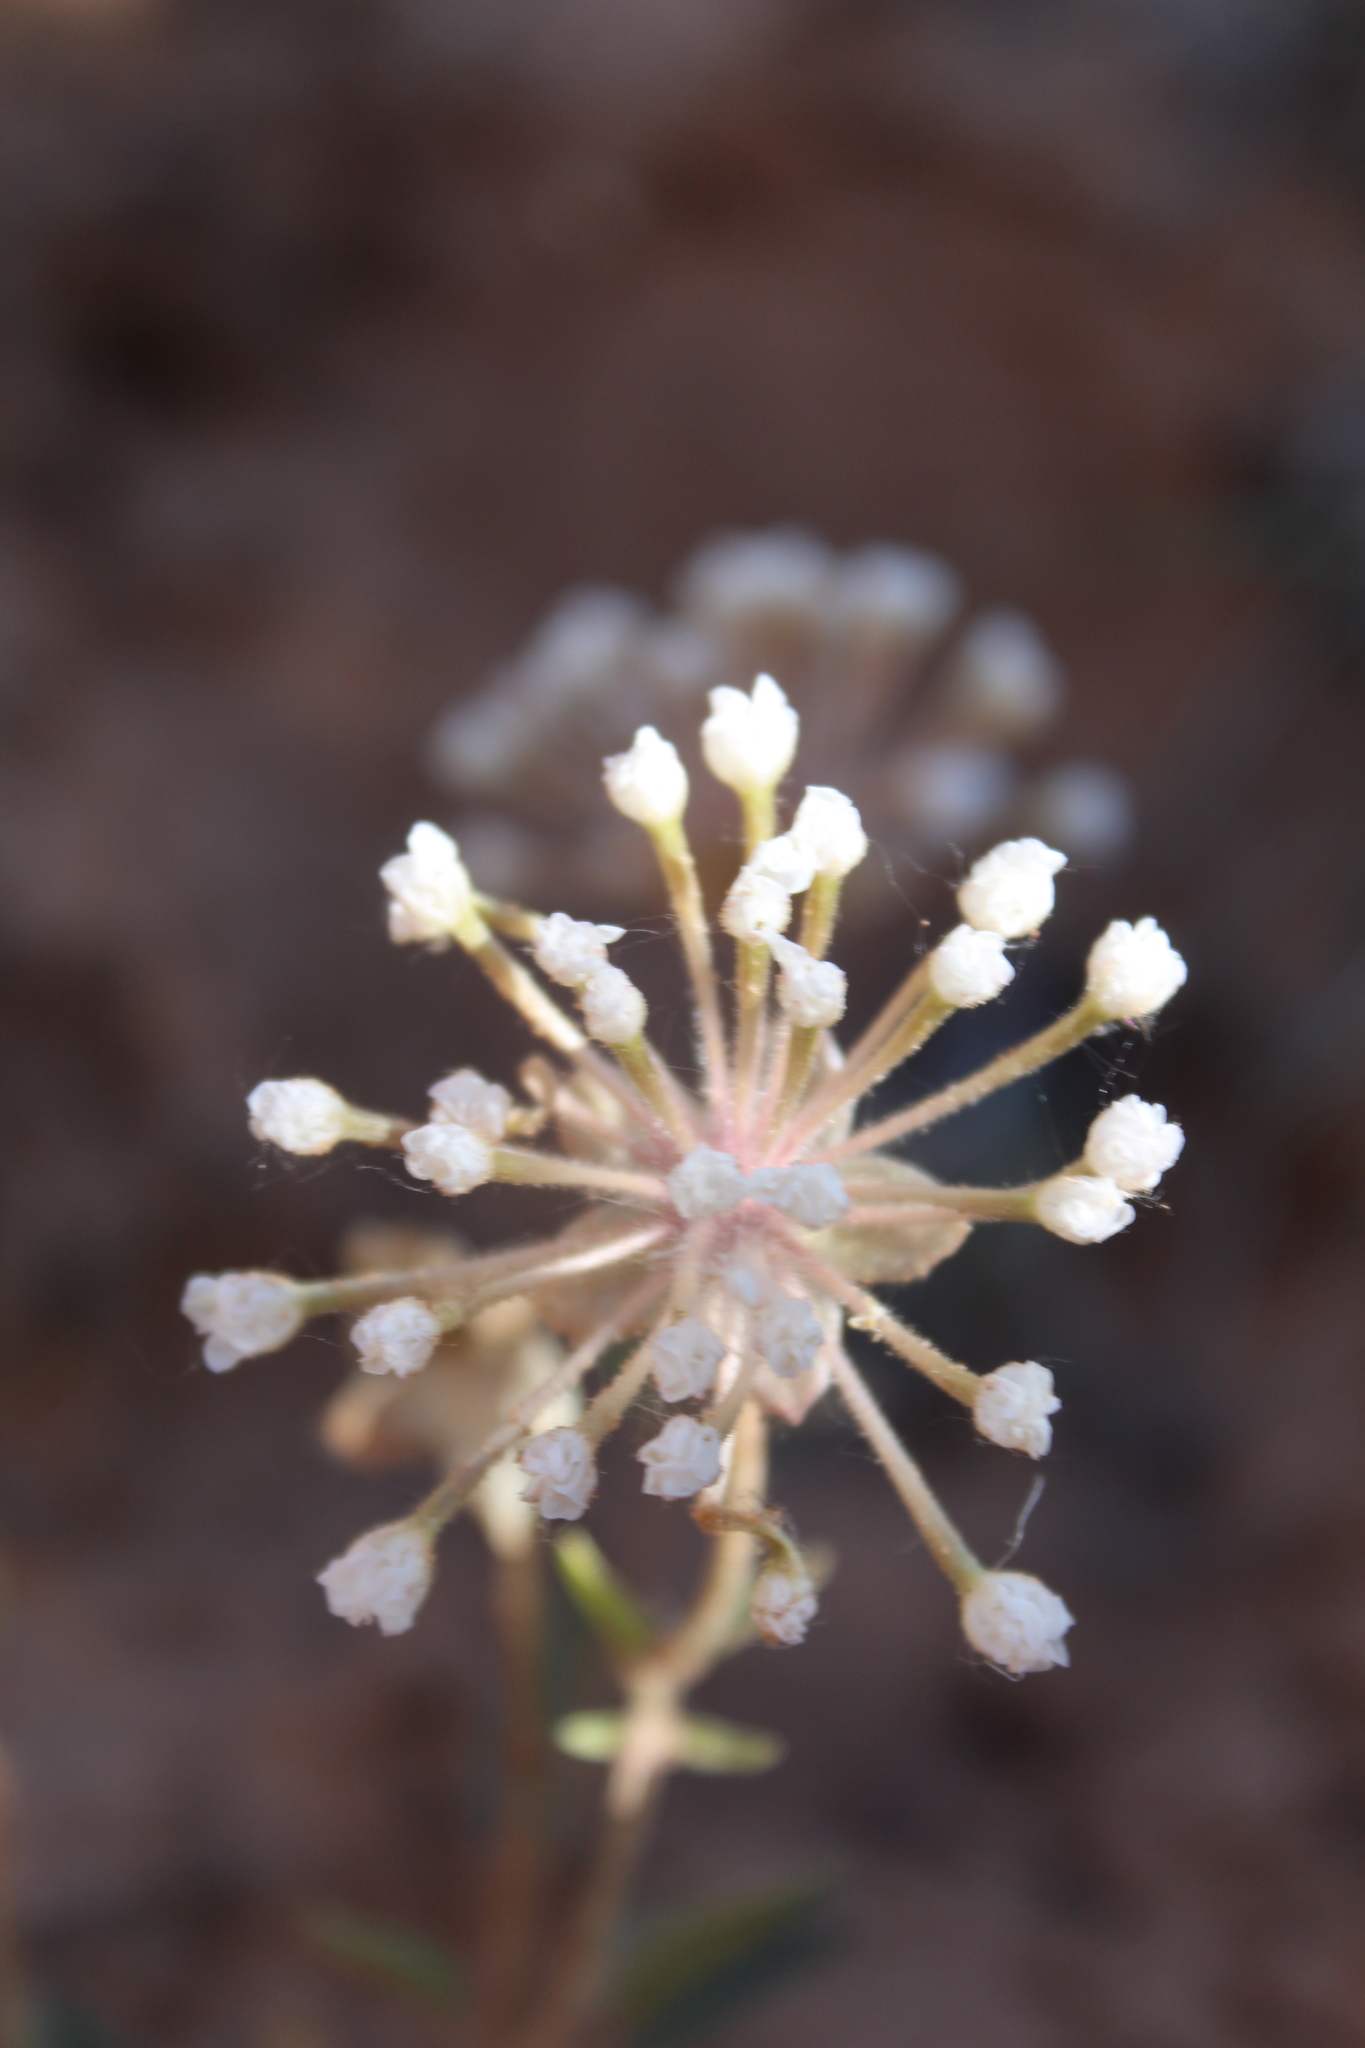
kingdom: Plantae
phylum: Tracheophyta
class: Magnoliopsida
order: Caryophyllales
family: Nyctaginaceae
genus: Abronia
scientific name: Abronia elliptica
